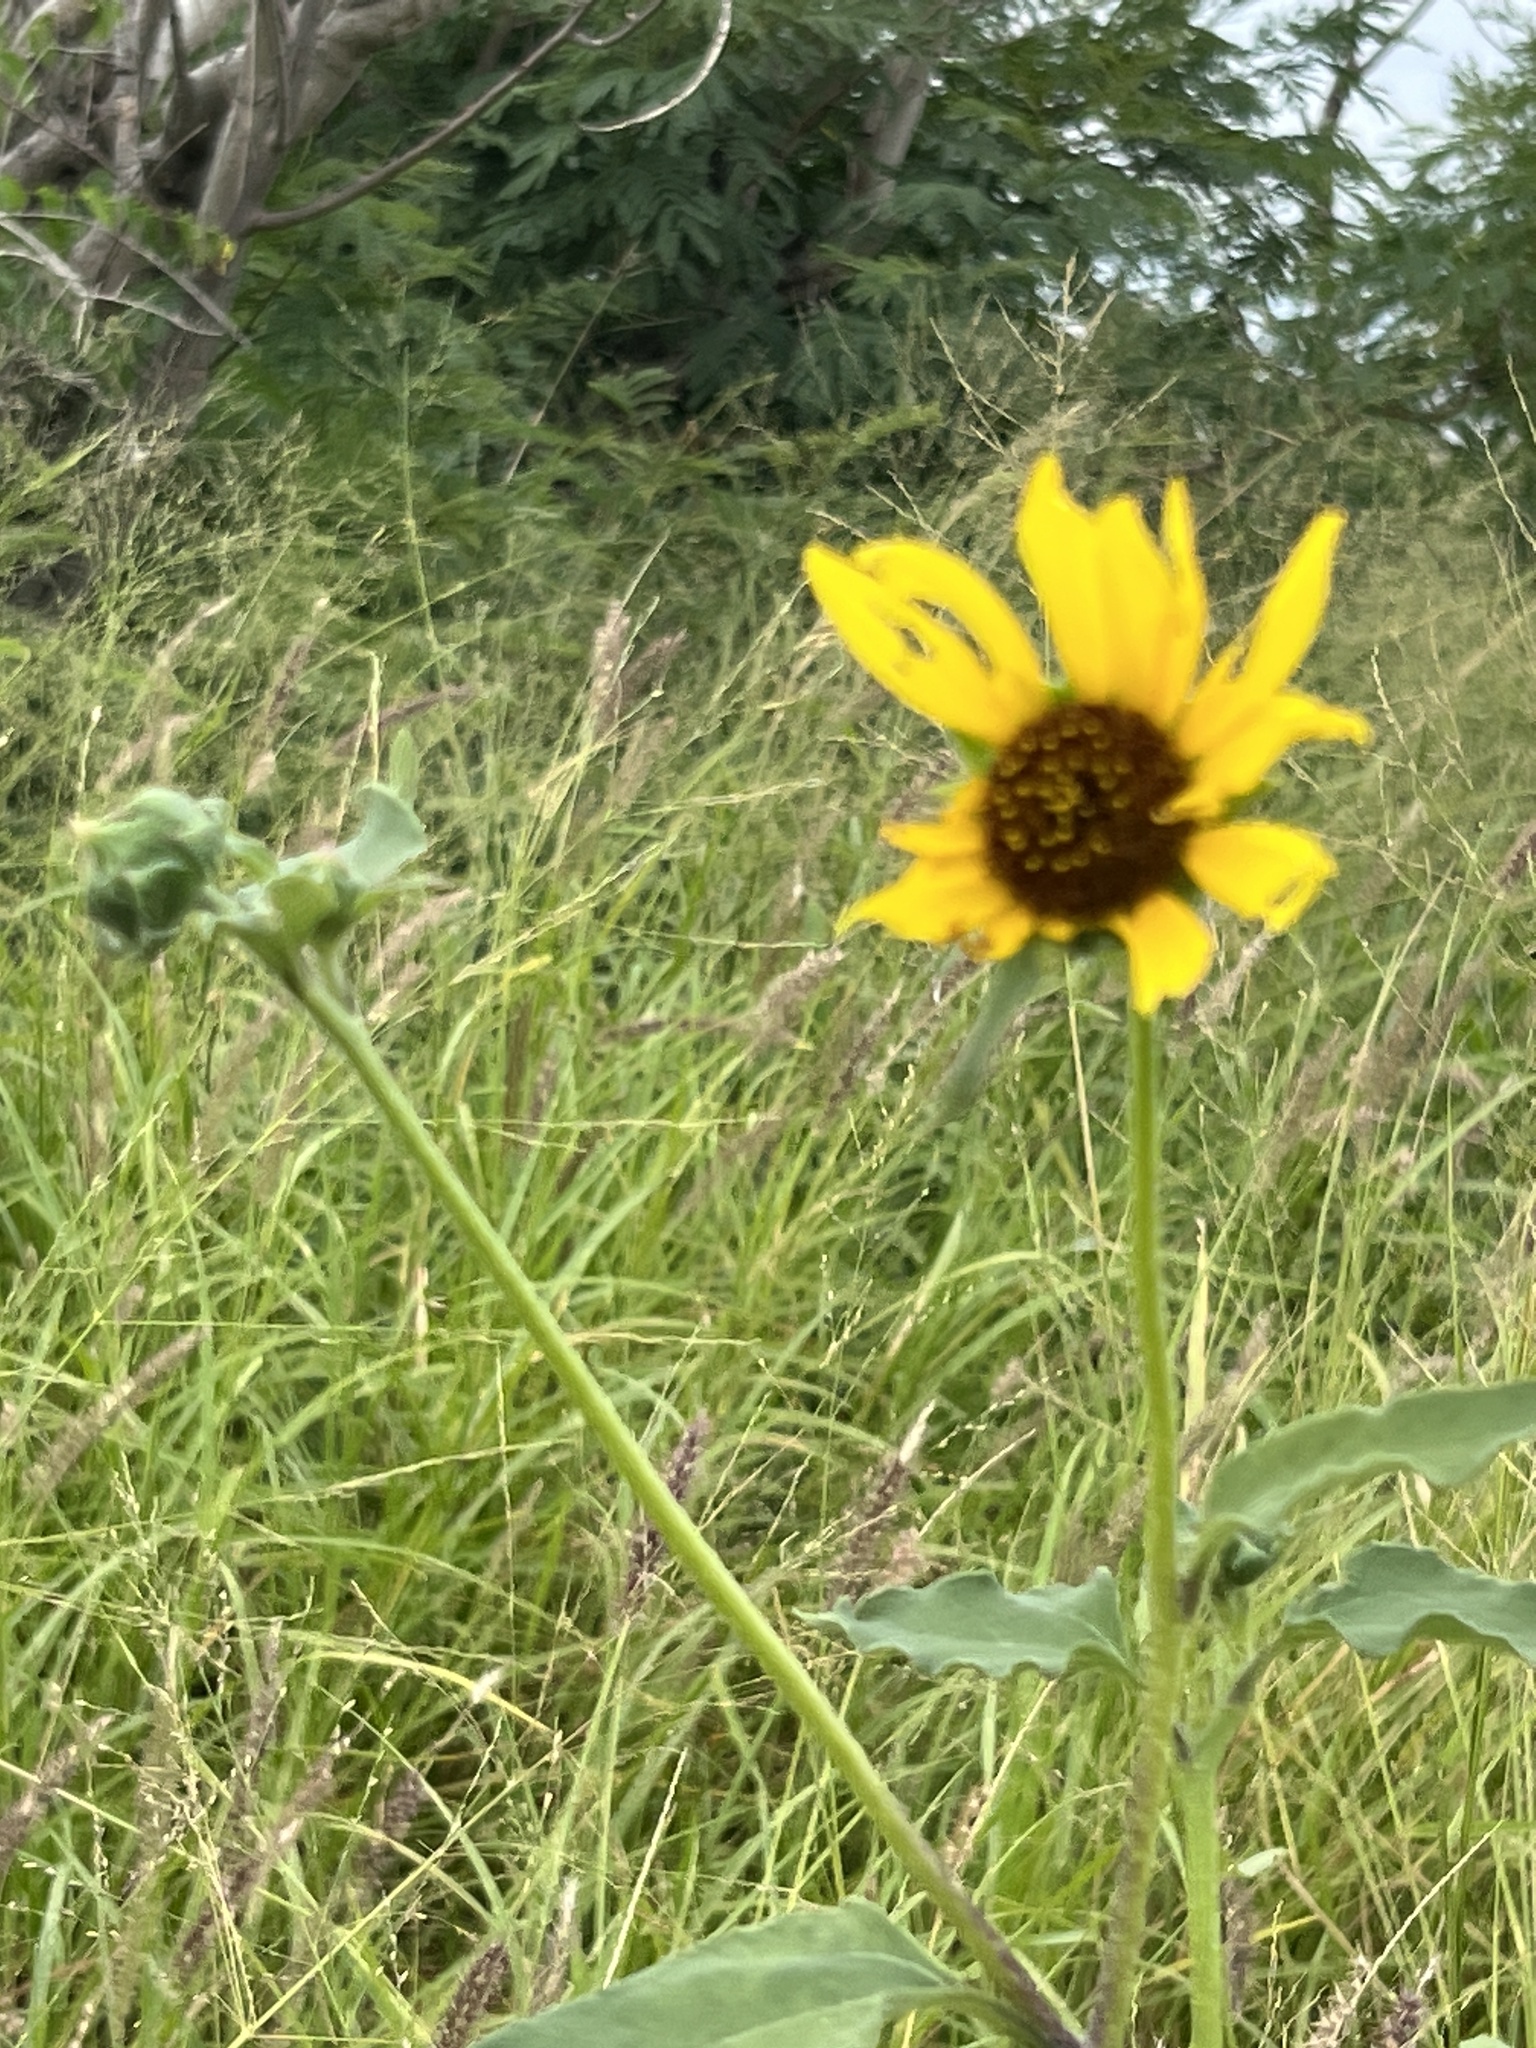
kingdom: Plantae
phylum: Tracheophyta
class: Magnoliopsida
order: Asterales
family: Asteraceae
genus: Helianthus
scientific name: Helianthus annuus
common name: Sunflower
